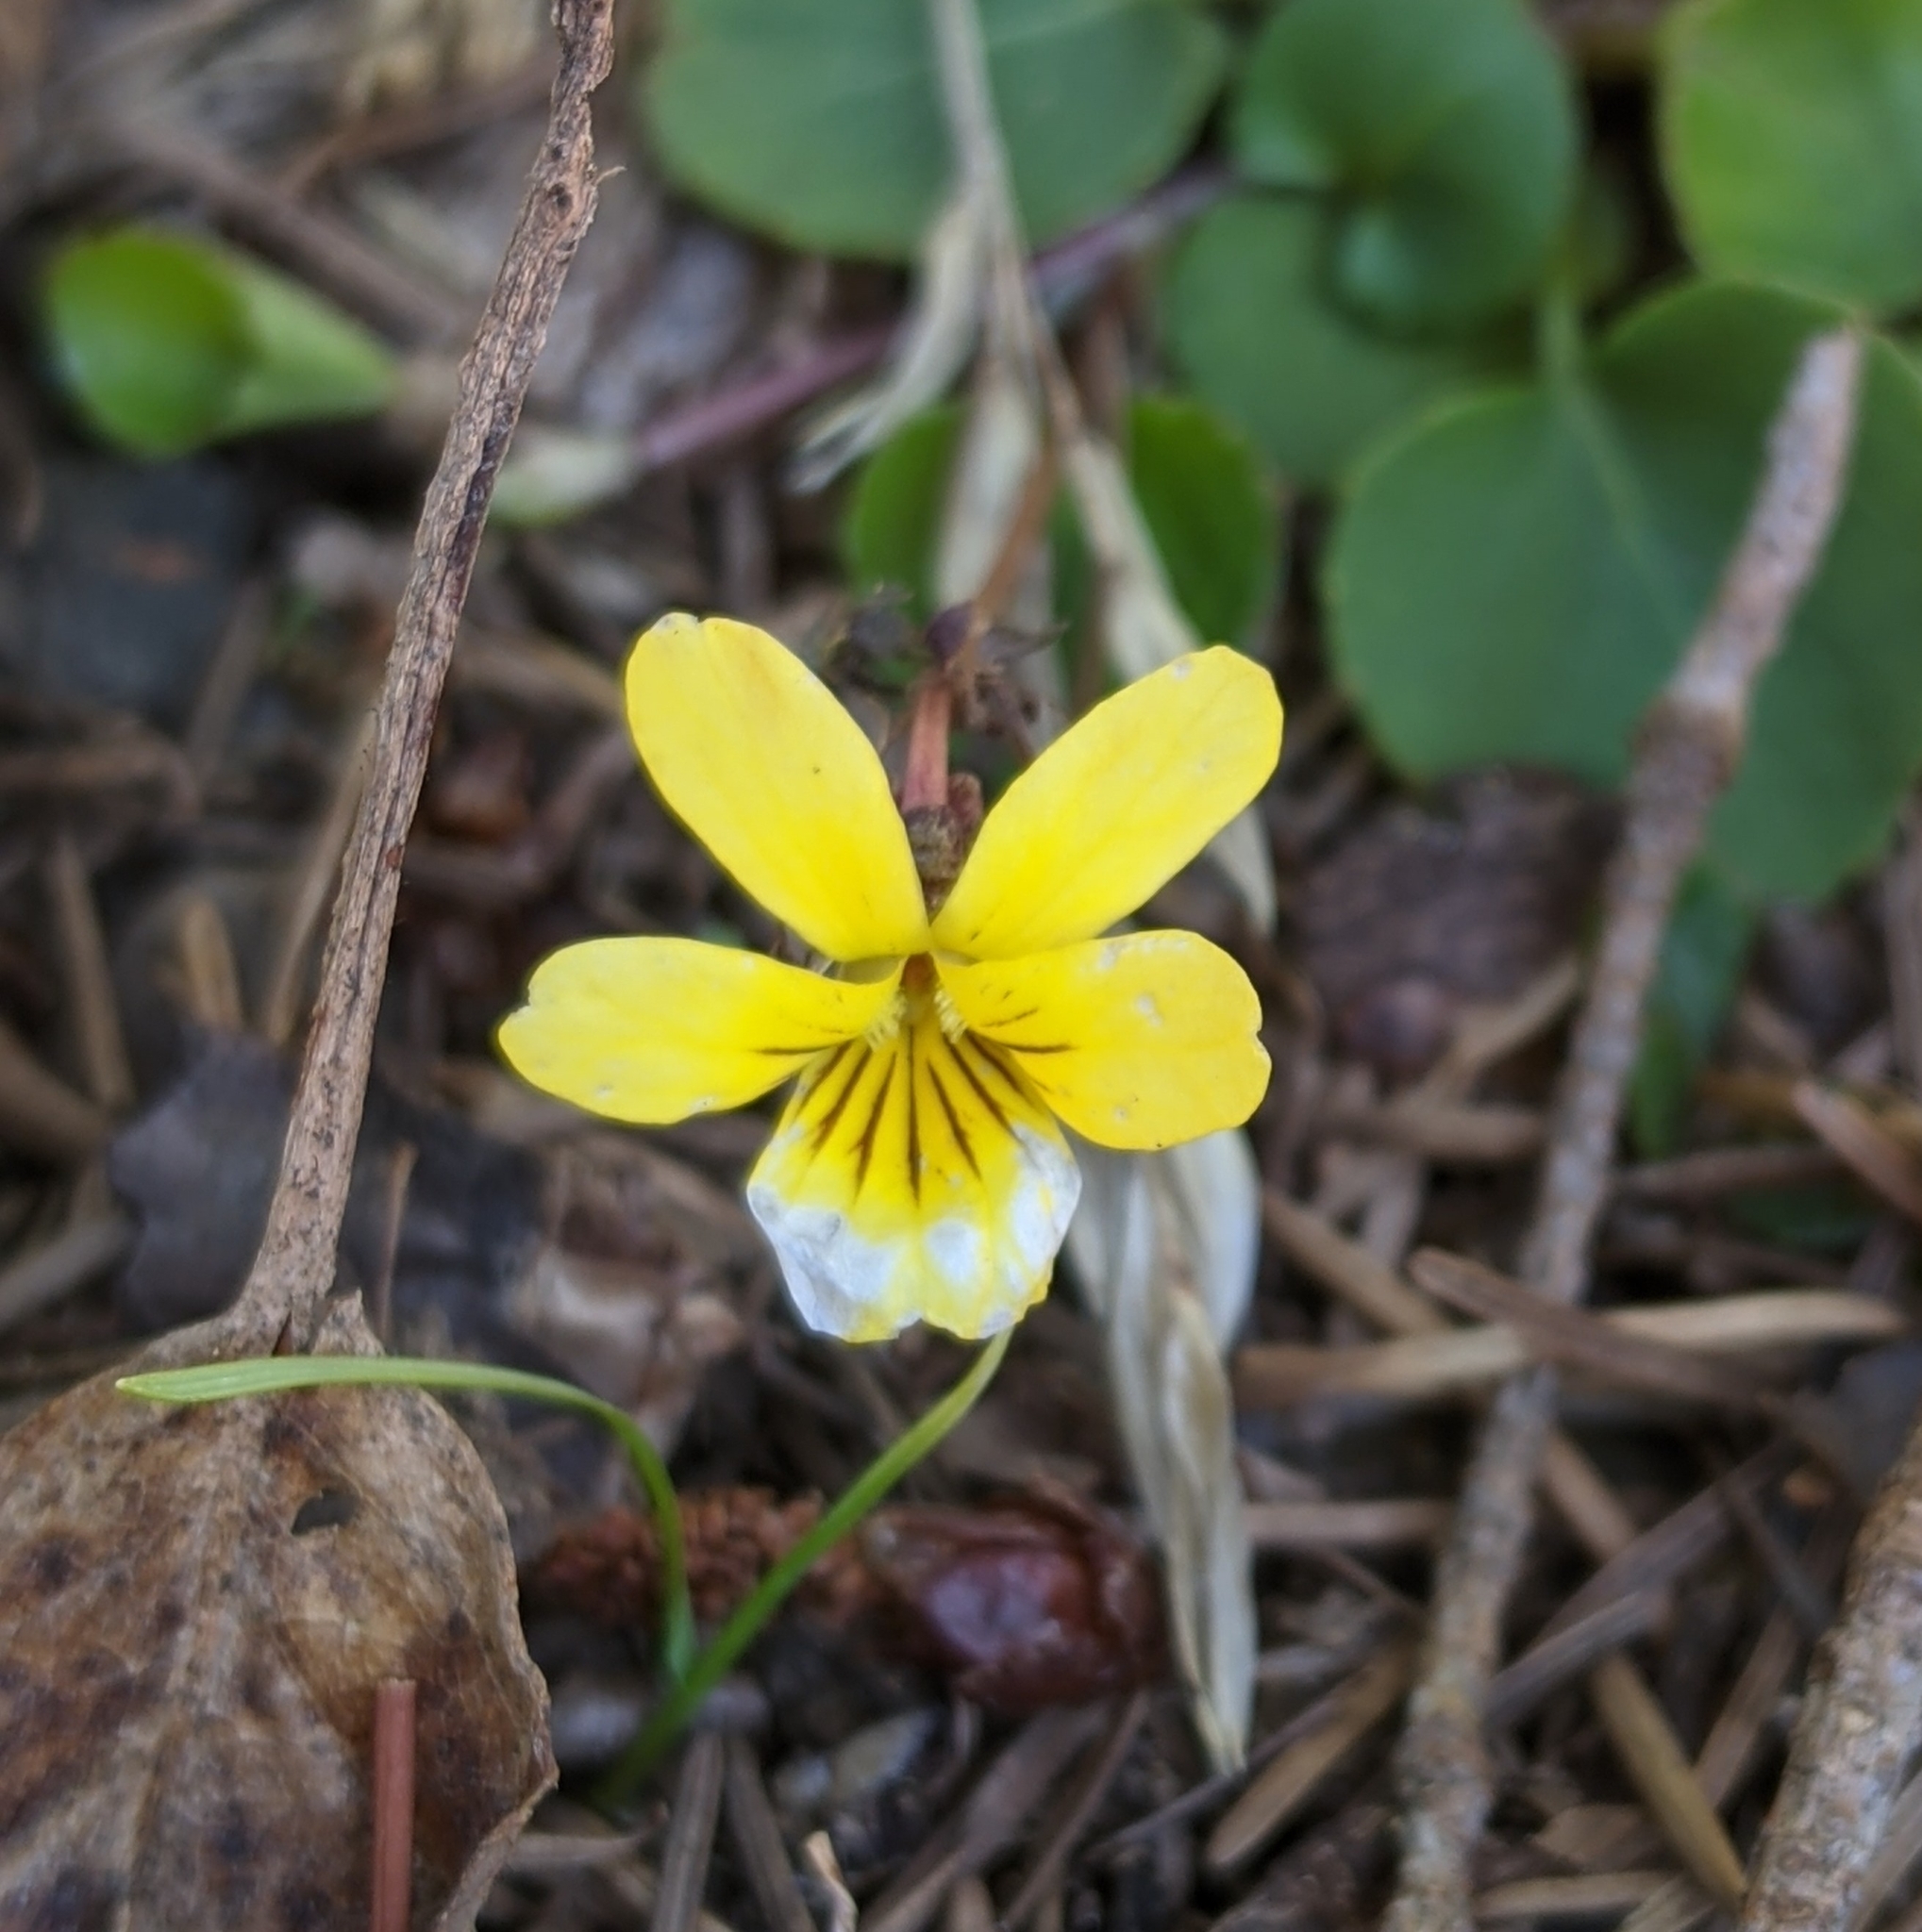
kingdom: Plantae
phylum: Tracheophyta
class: Magnoliopsida
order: Malpighiales
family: Violaceae
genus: Viola
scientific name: Viola sempervirens
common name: Evergreen violet
